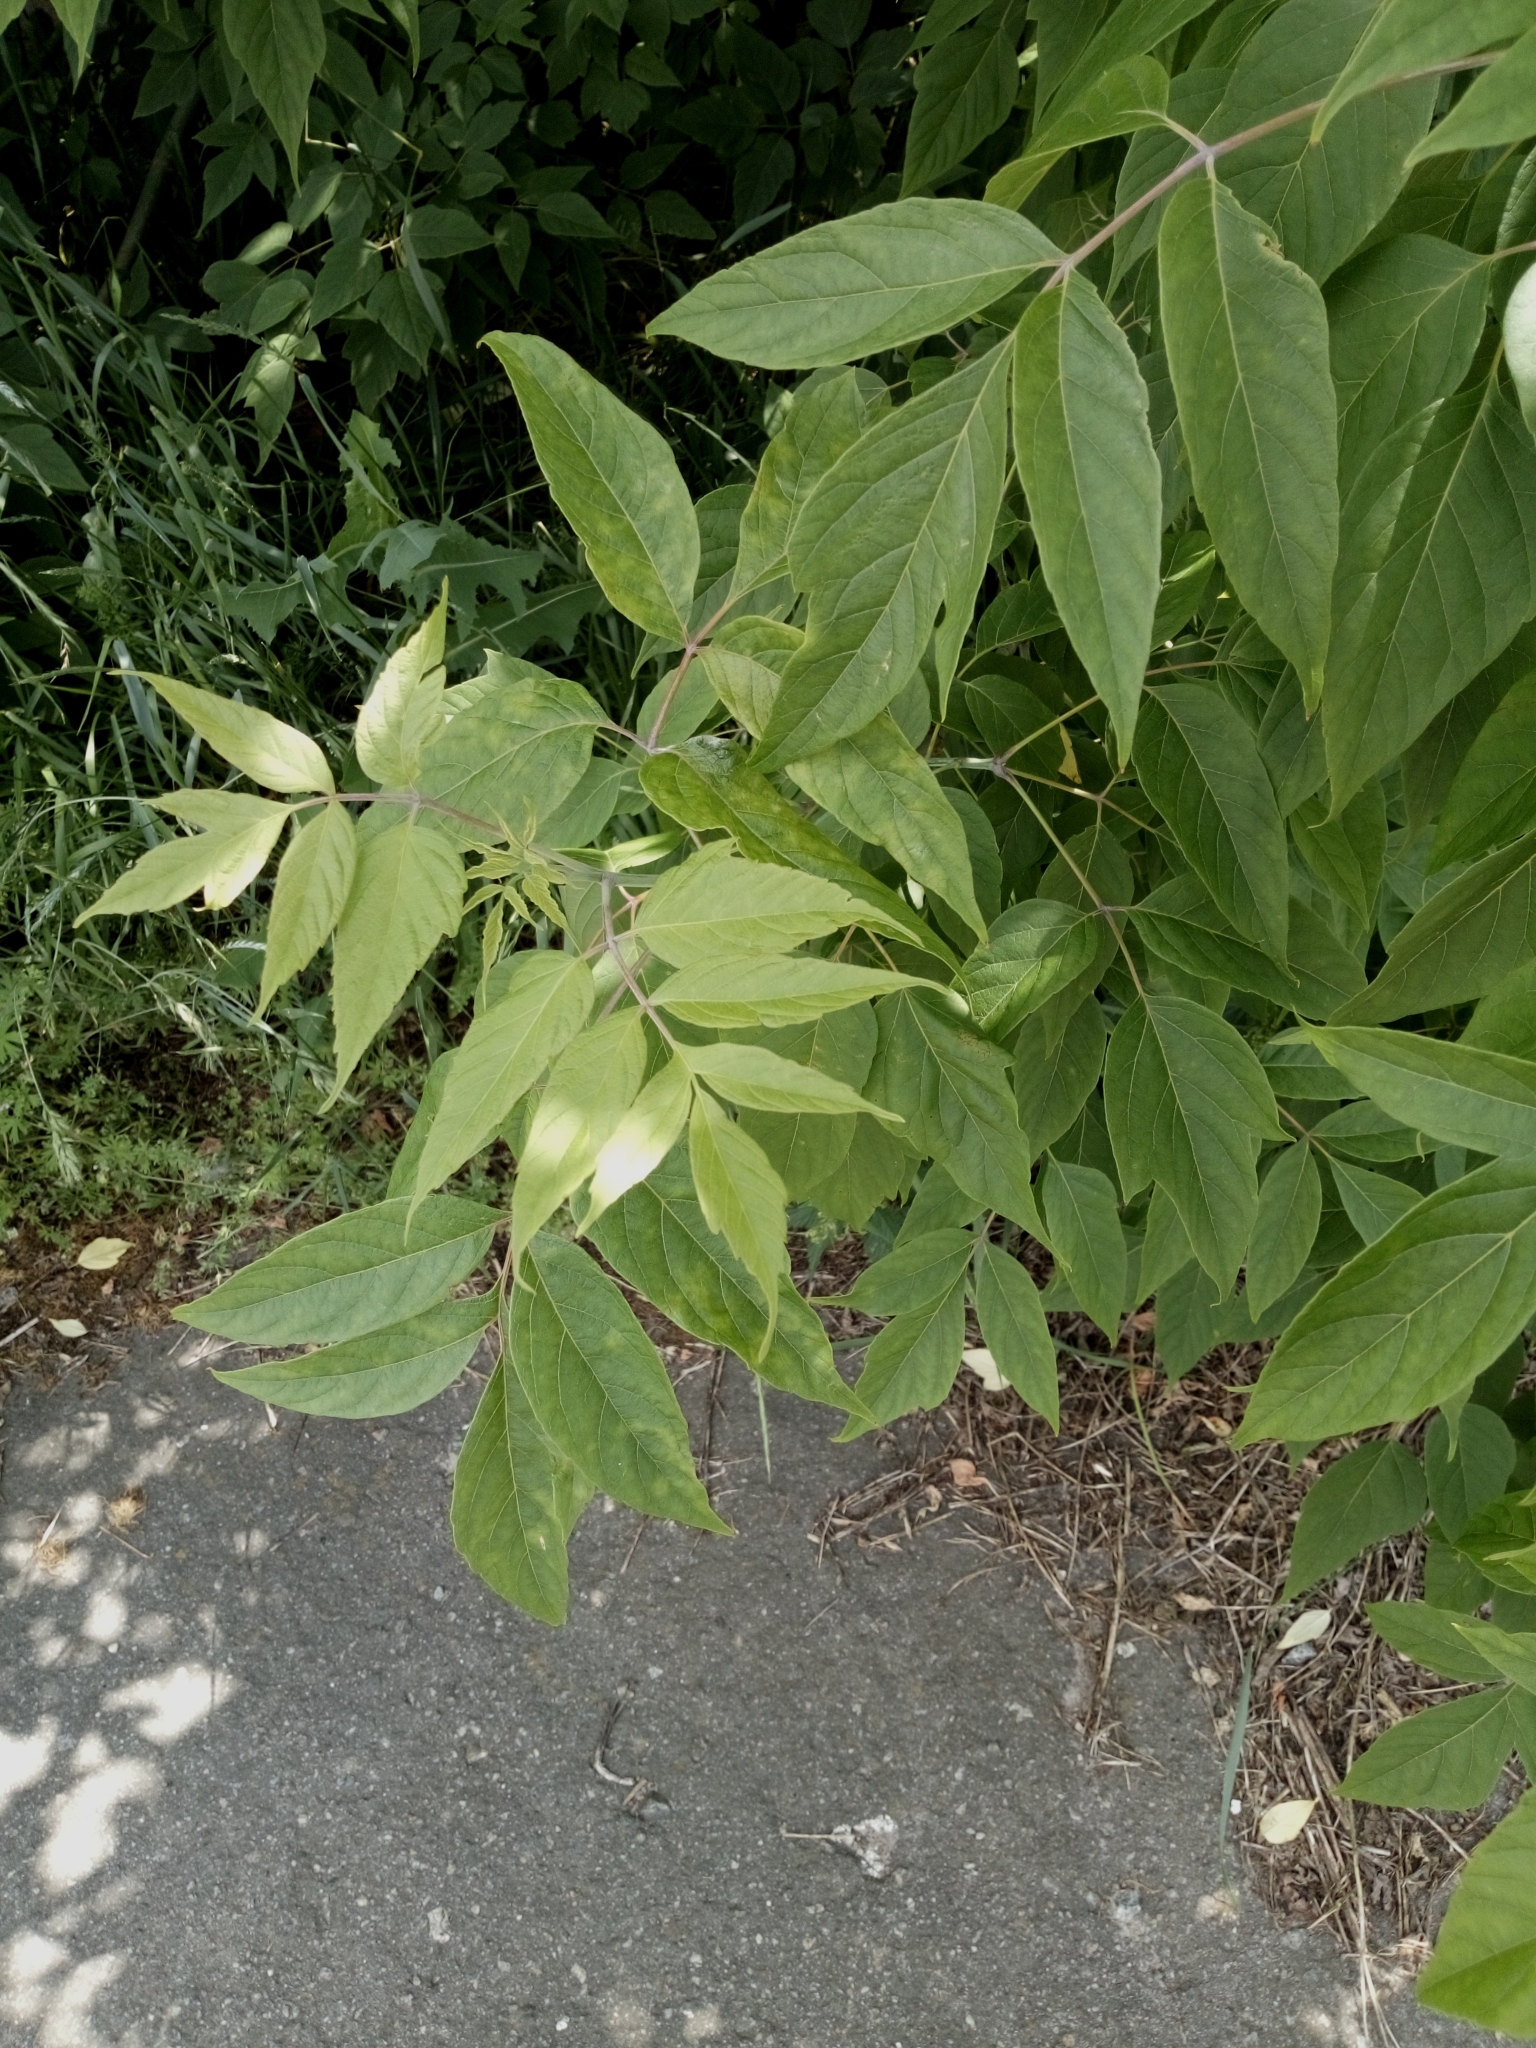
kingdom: Plantae
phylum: Tracheophyta
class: Magnoliopsida
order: Sapindales
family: Sapindaceae
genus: Acer
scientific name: Acer negundo
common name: Ashleaf maple
